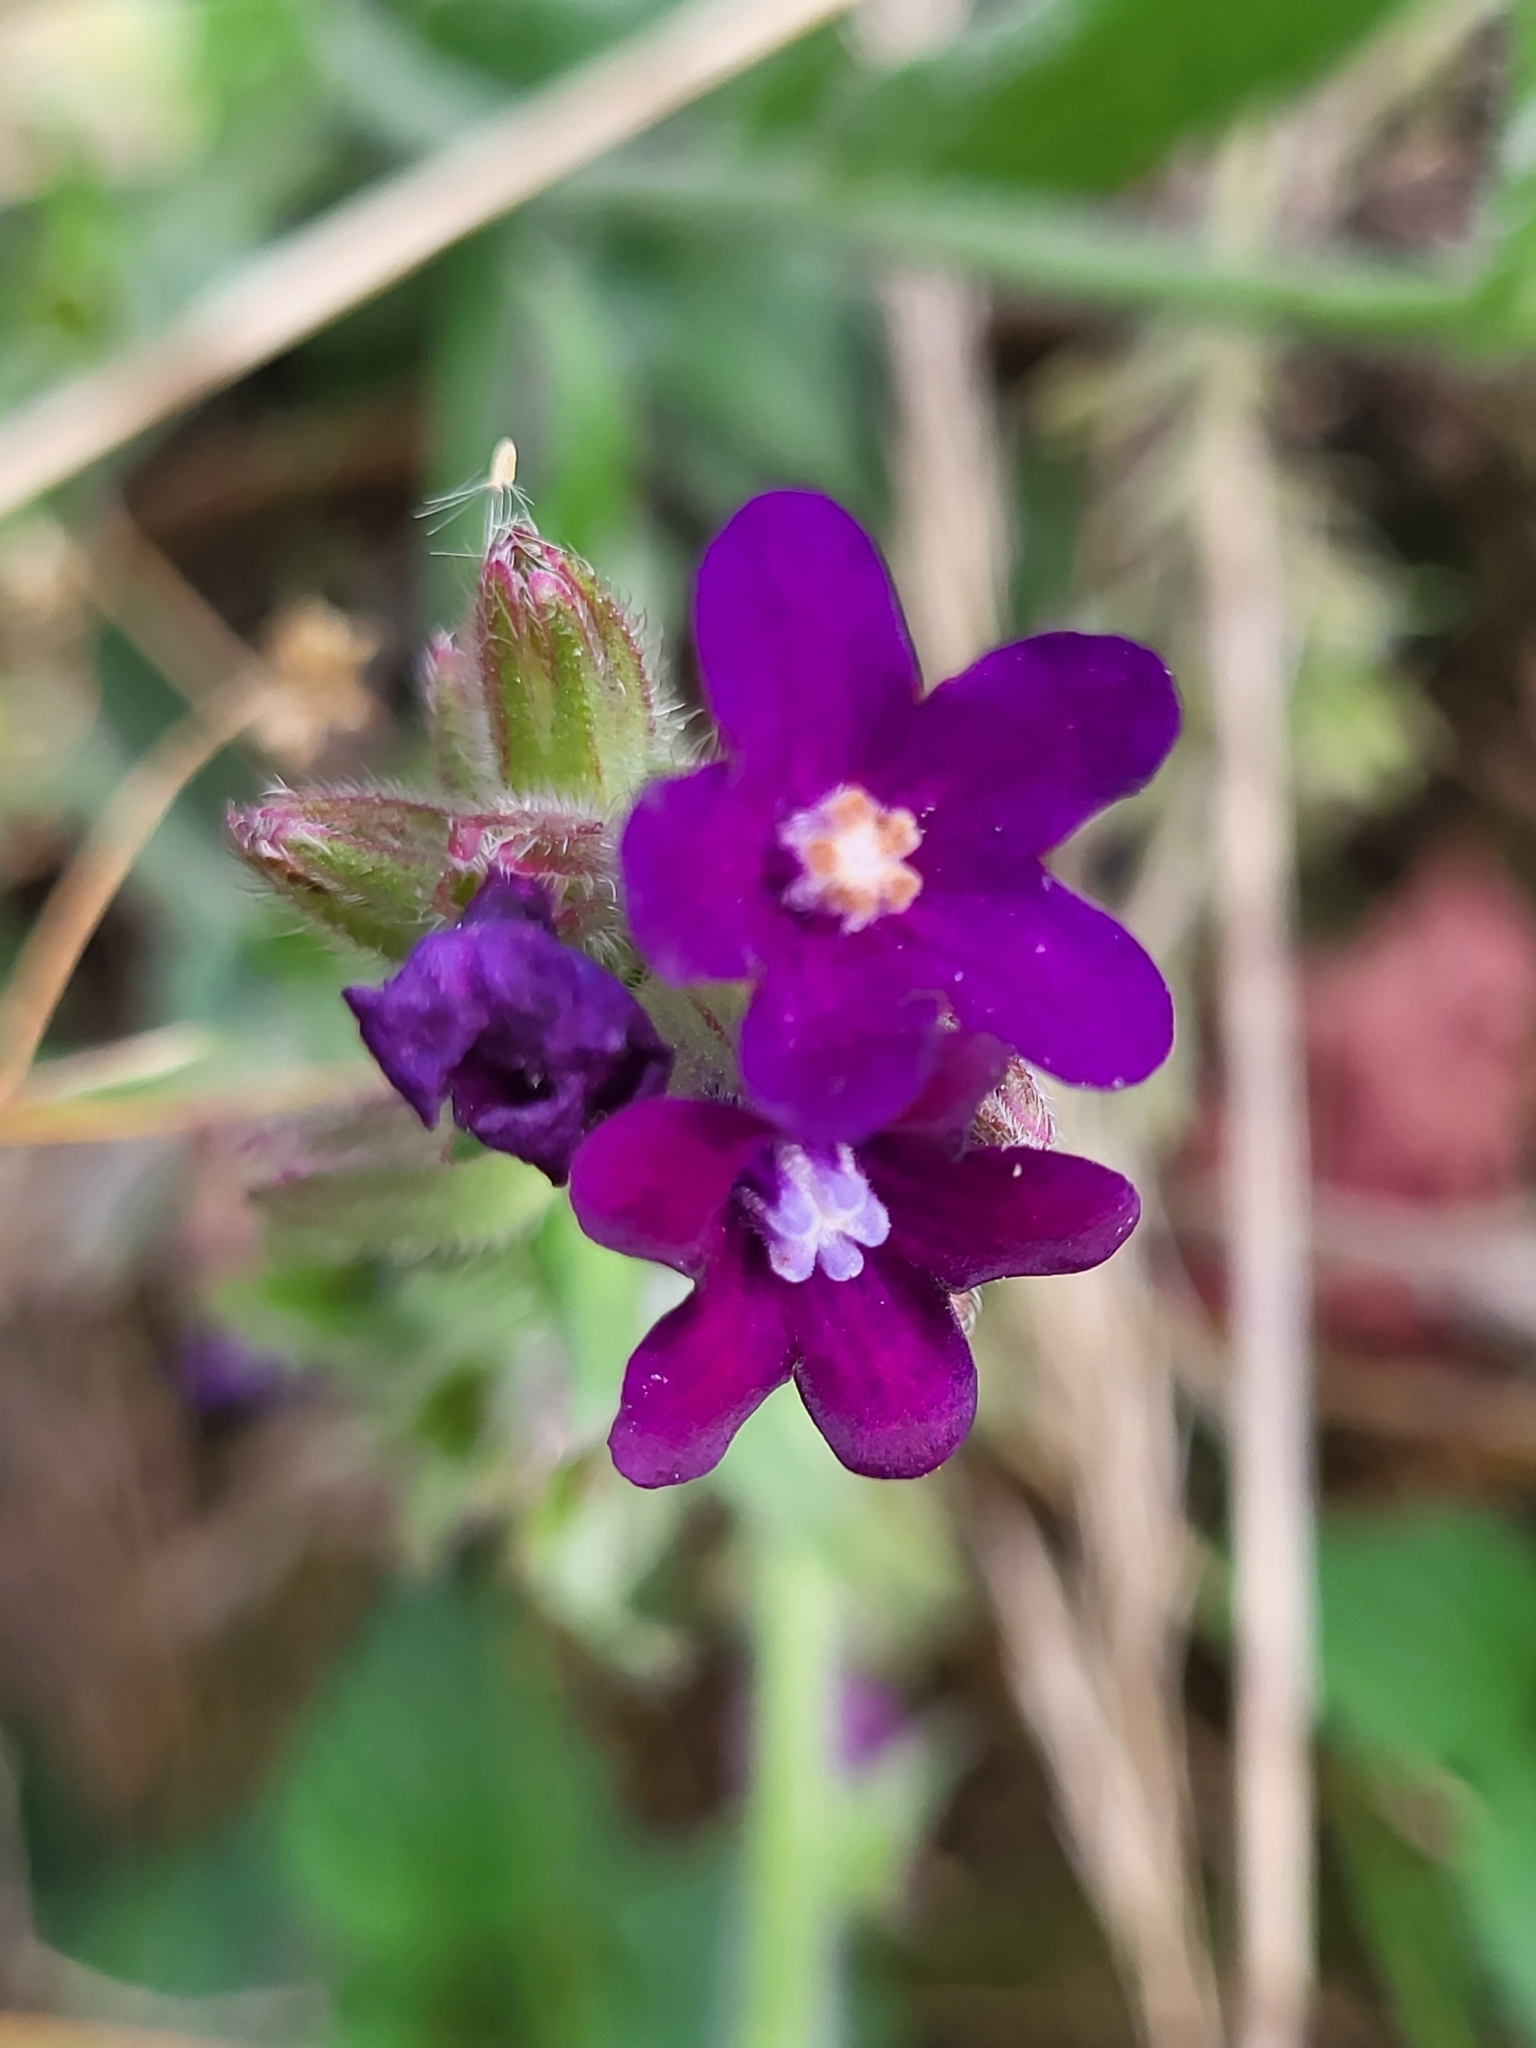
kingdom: Plantae
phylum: Tracheophyta
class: Magnoliopsida
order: Boraginales
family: Boraginaceae
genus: Anchusa
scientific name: Anchusa officinalis
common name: Alkanet
